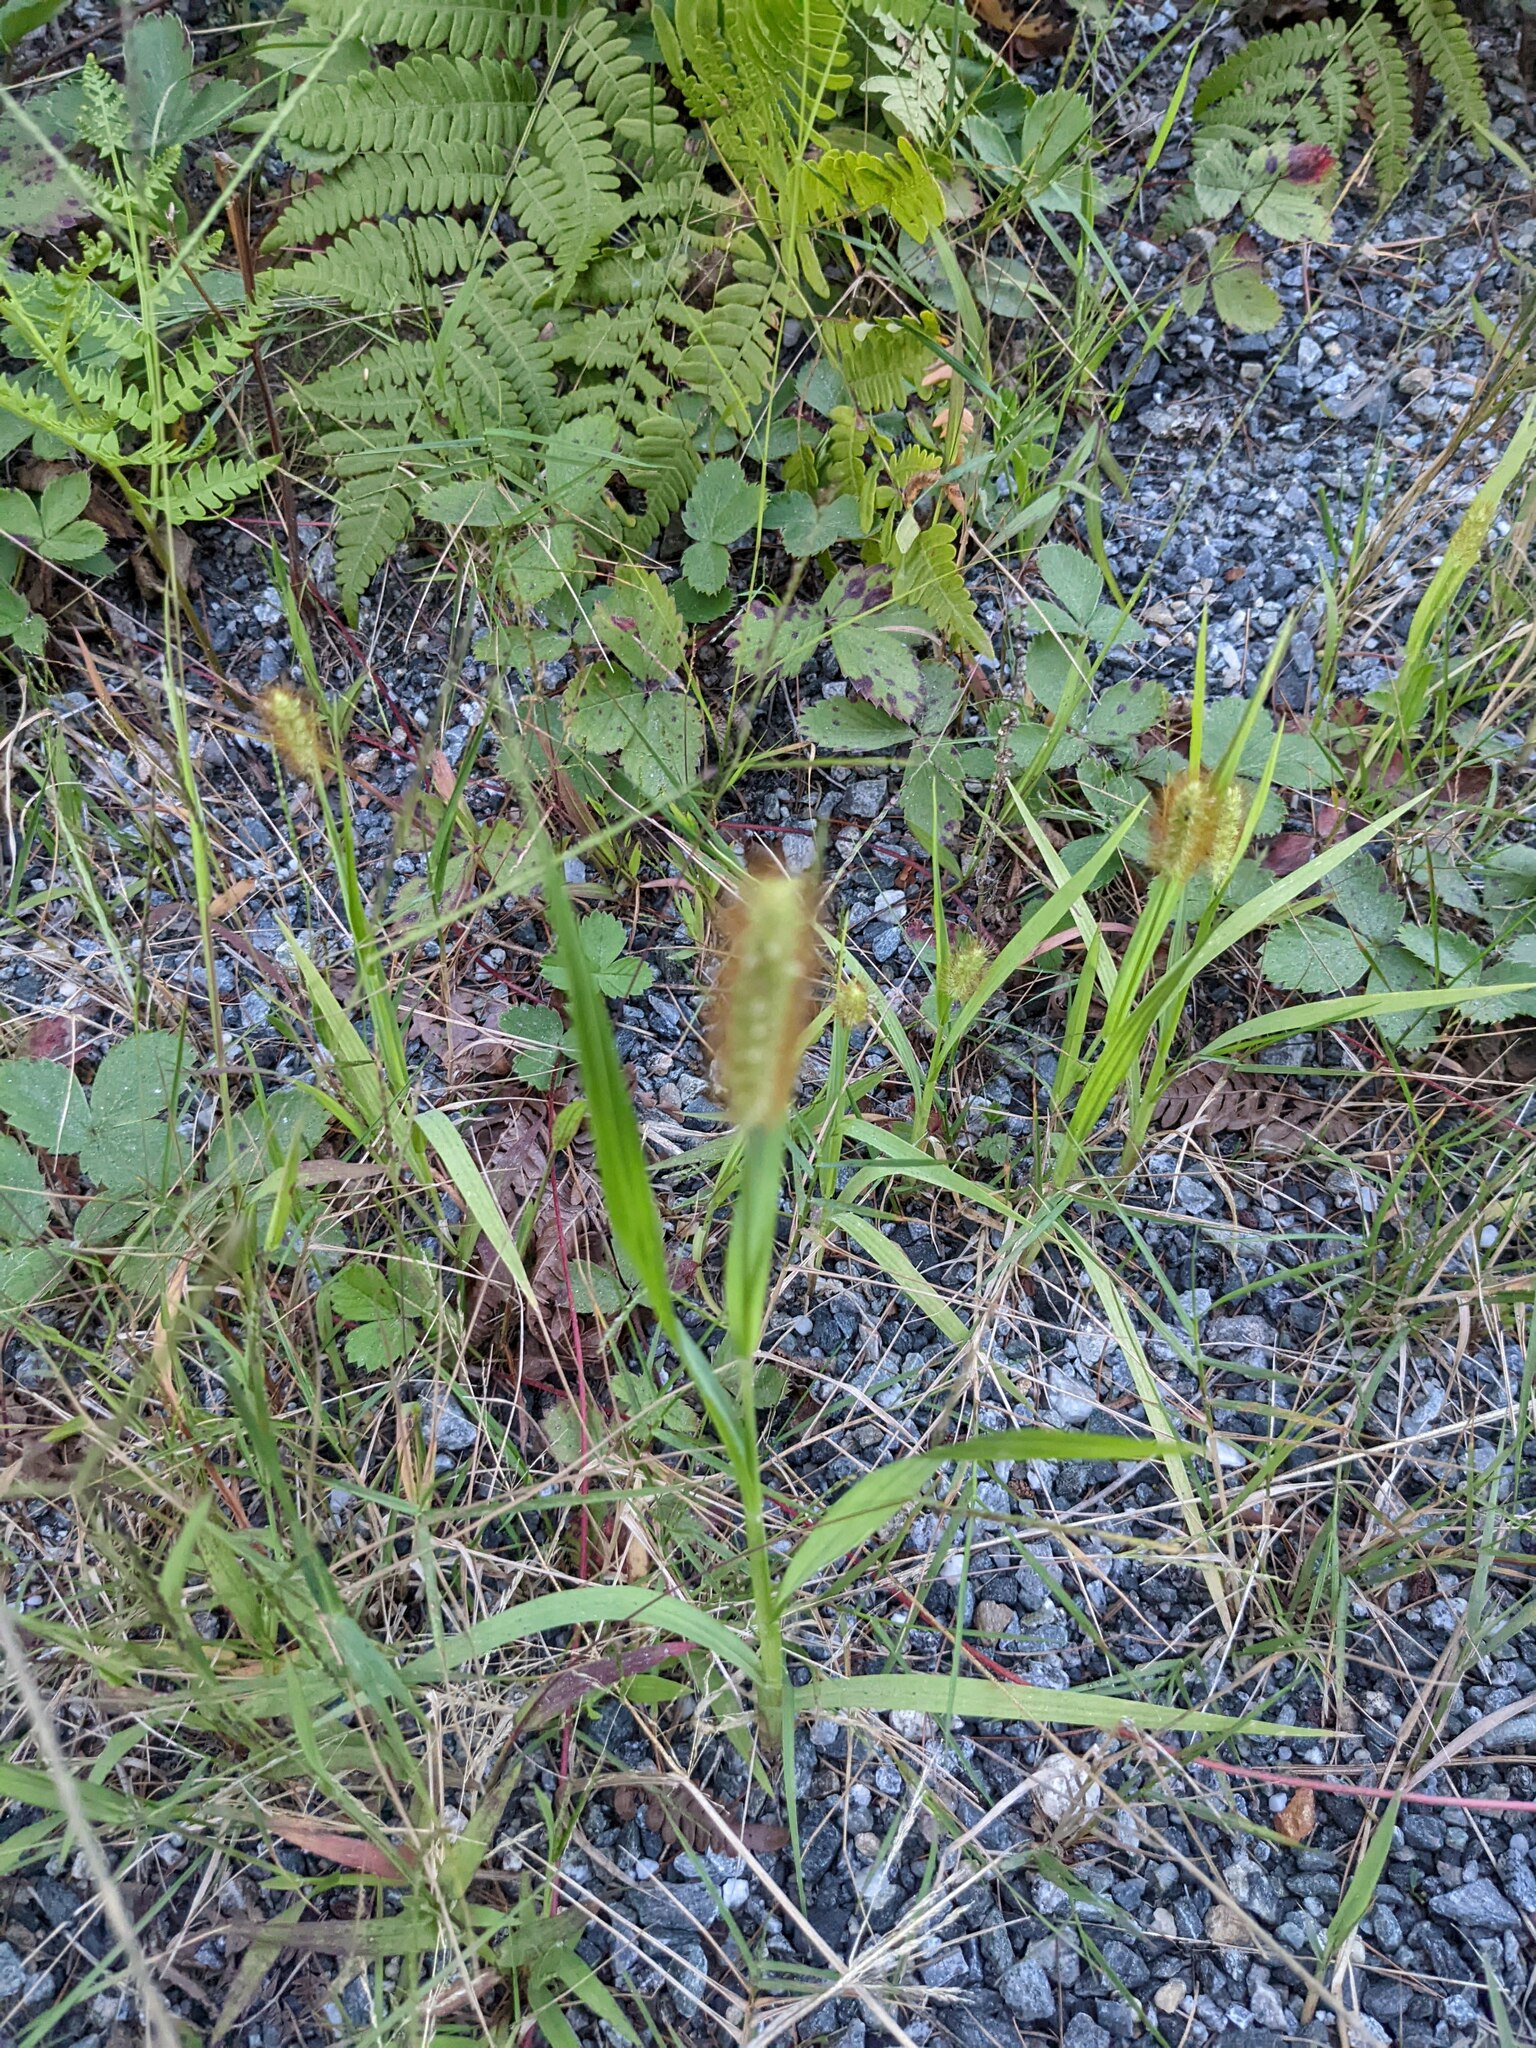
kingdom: Plantae
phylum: Tracheophyta
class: Liliopsida
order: Poales
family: Poaceae
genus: Setaria
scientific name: Setaria pumila
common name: Yellow bristle-grass
